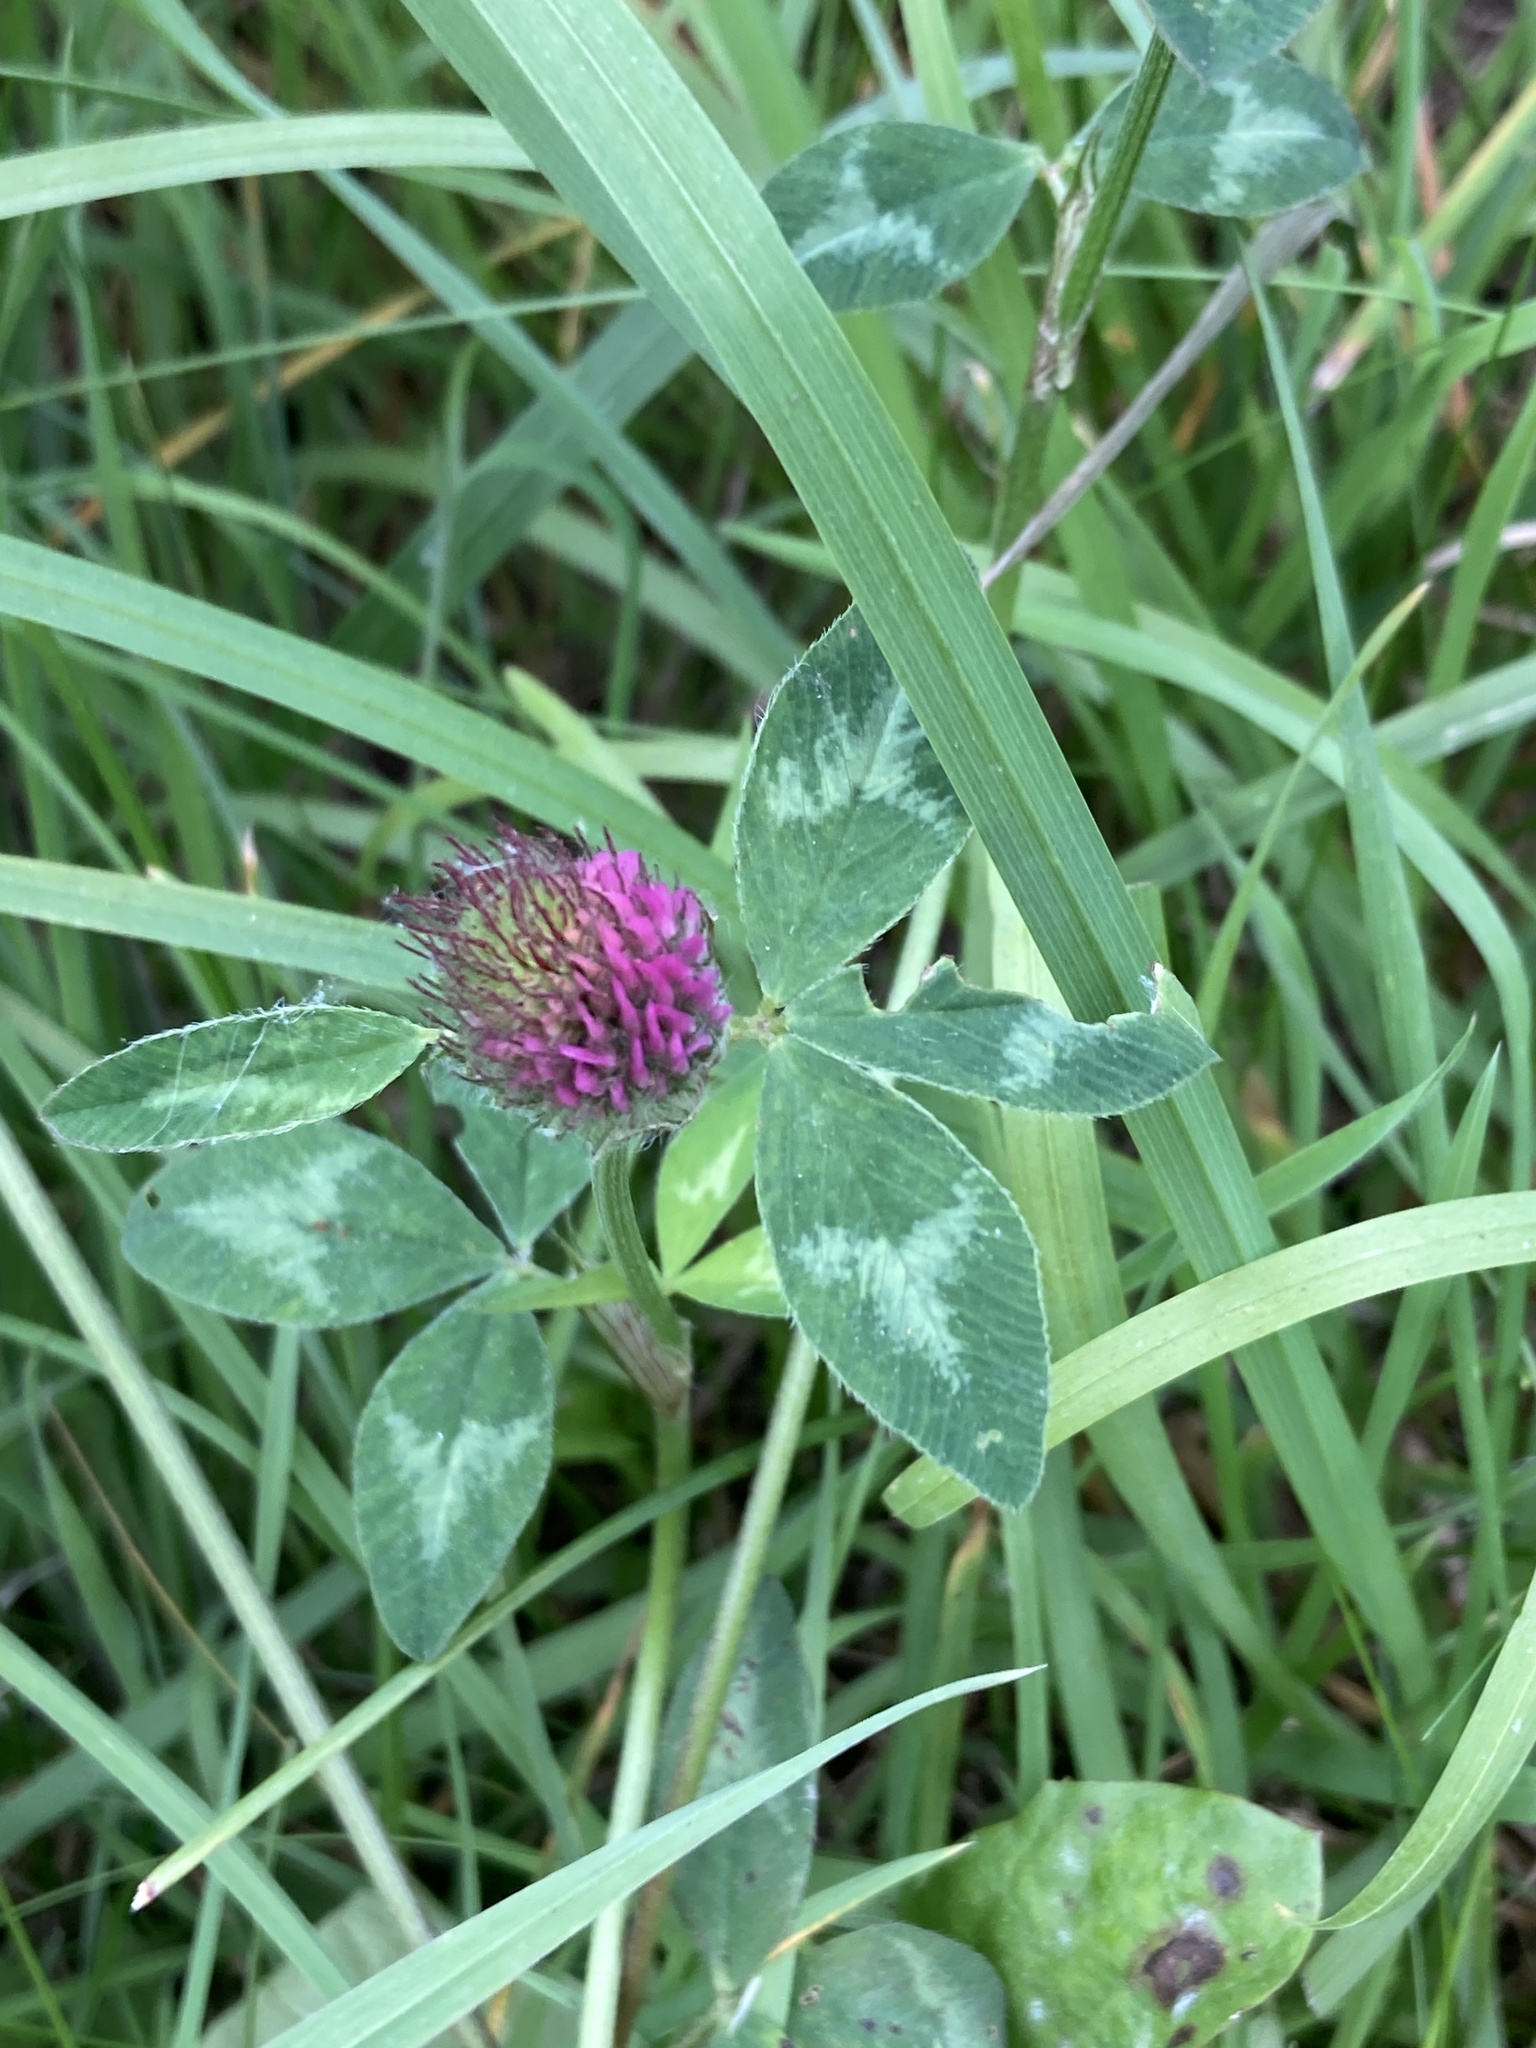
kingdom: Plantae
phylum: Tracheophyta
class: Magnoliopsida
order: Fabales
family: Fabaceae
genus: Trifolium
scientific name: Trifolium pratense
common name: Red clover
